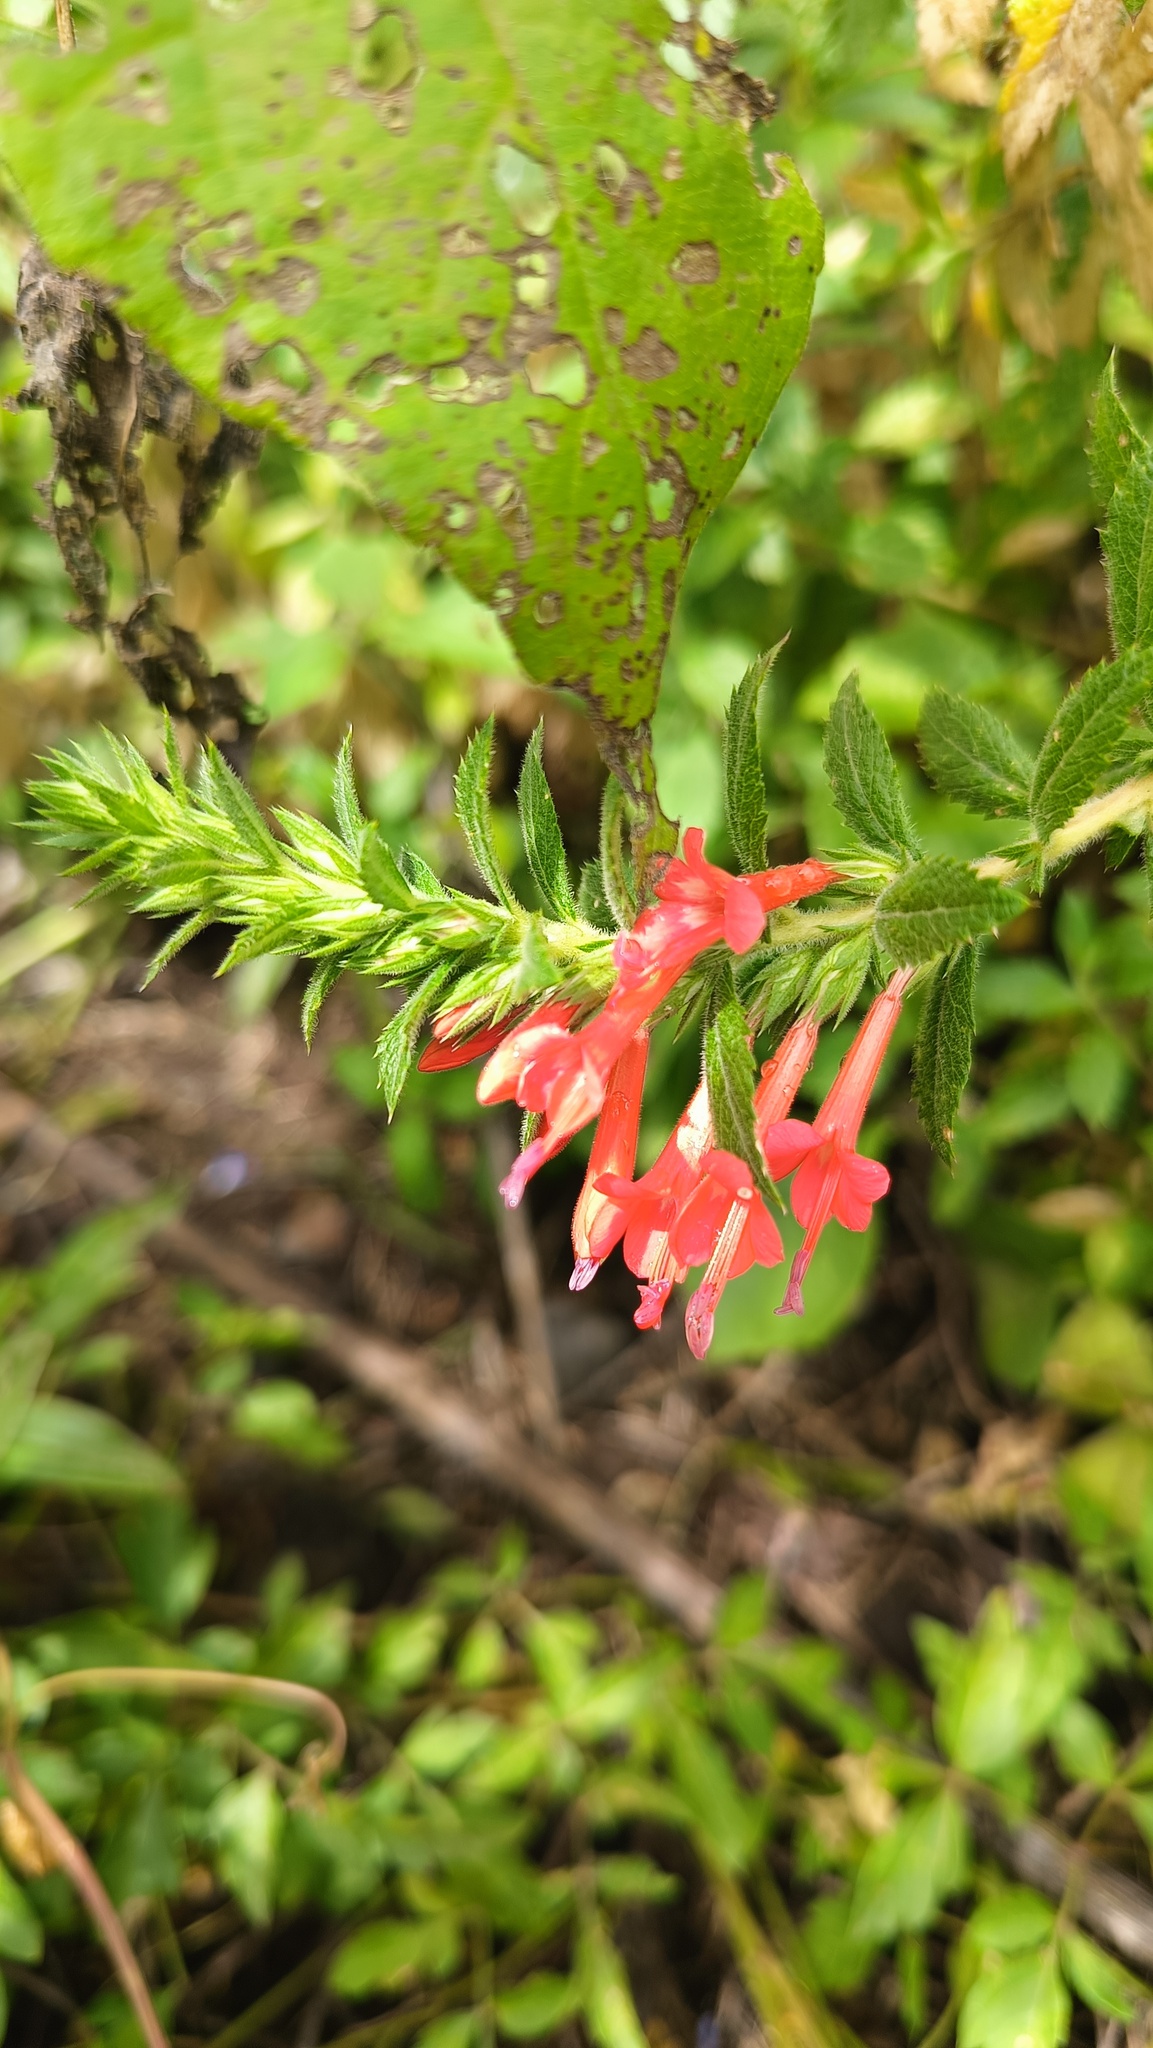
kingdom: Plantae
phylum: Tracheophyta
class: Magnoliopsida
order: Ericales
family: Polemoniaceae
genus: Loeselia
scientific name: Loeselia mexicana
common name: Mexican false calico
